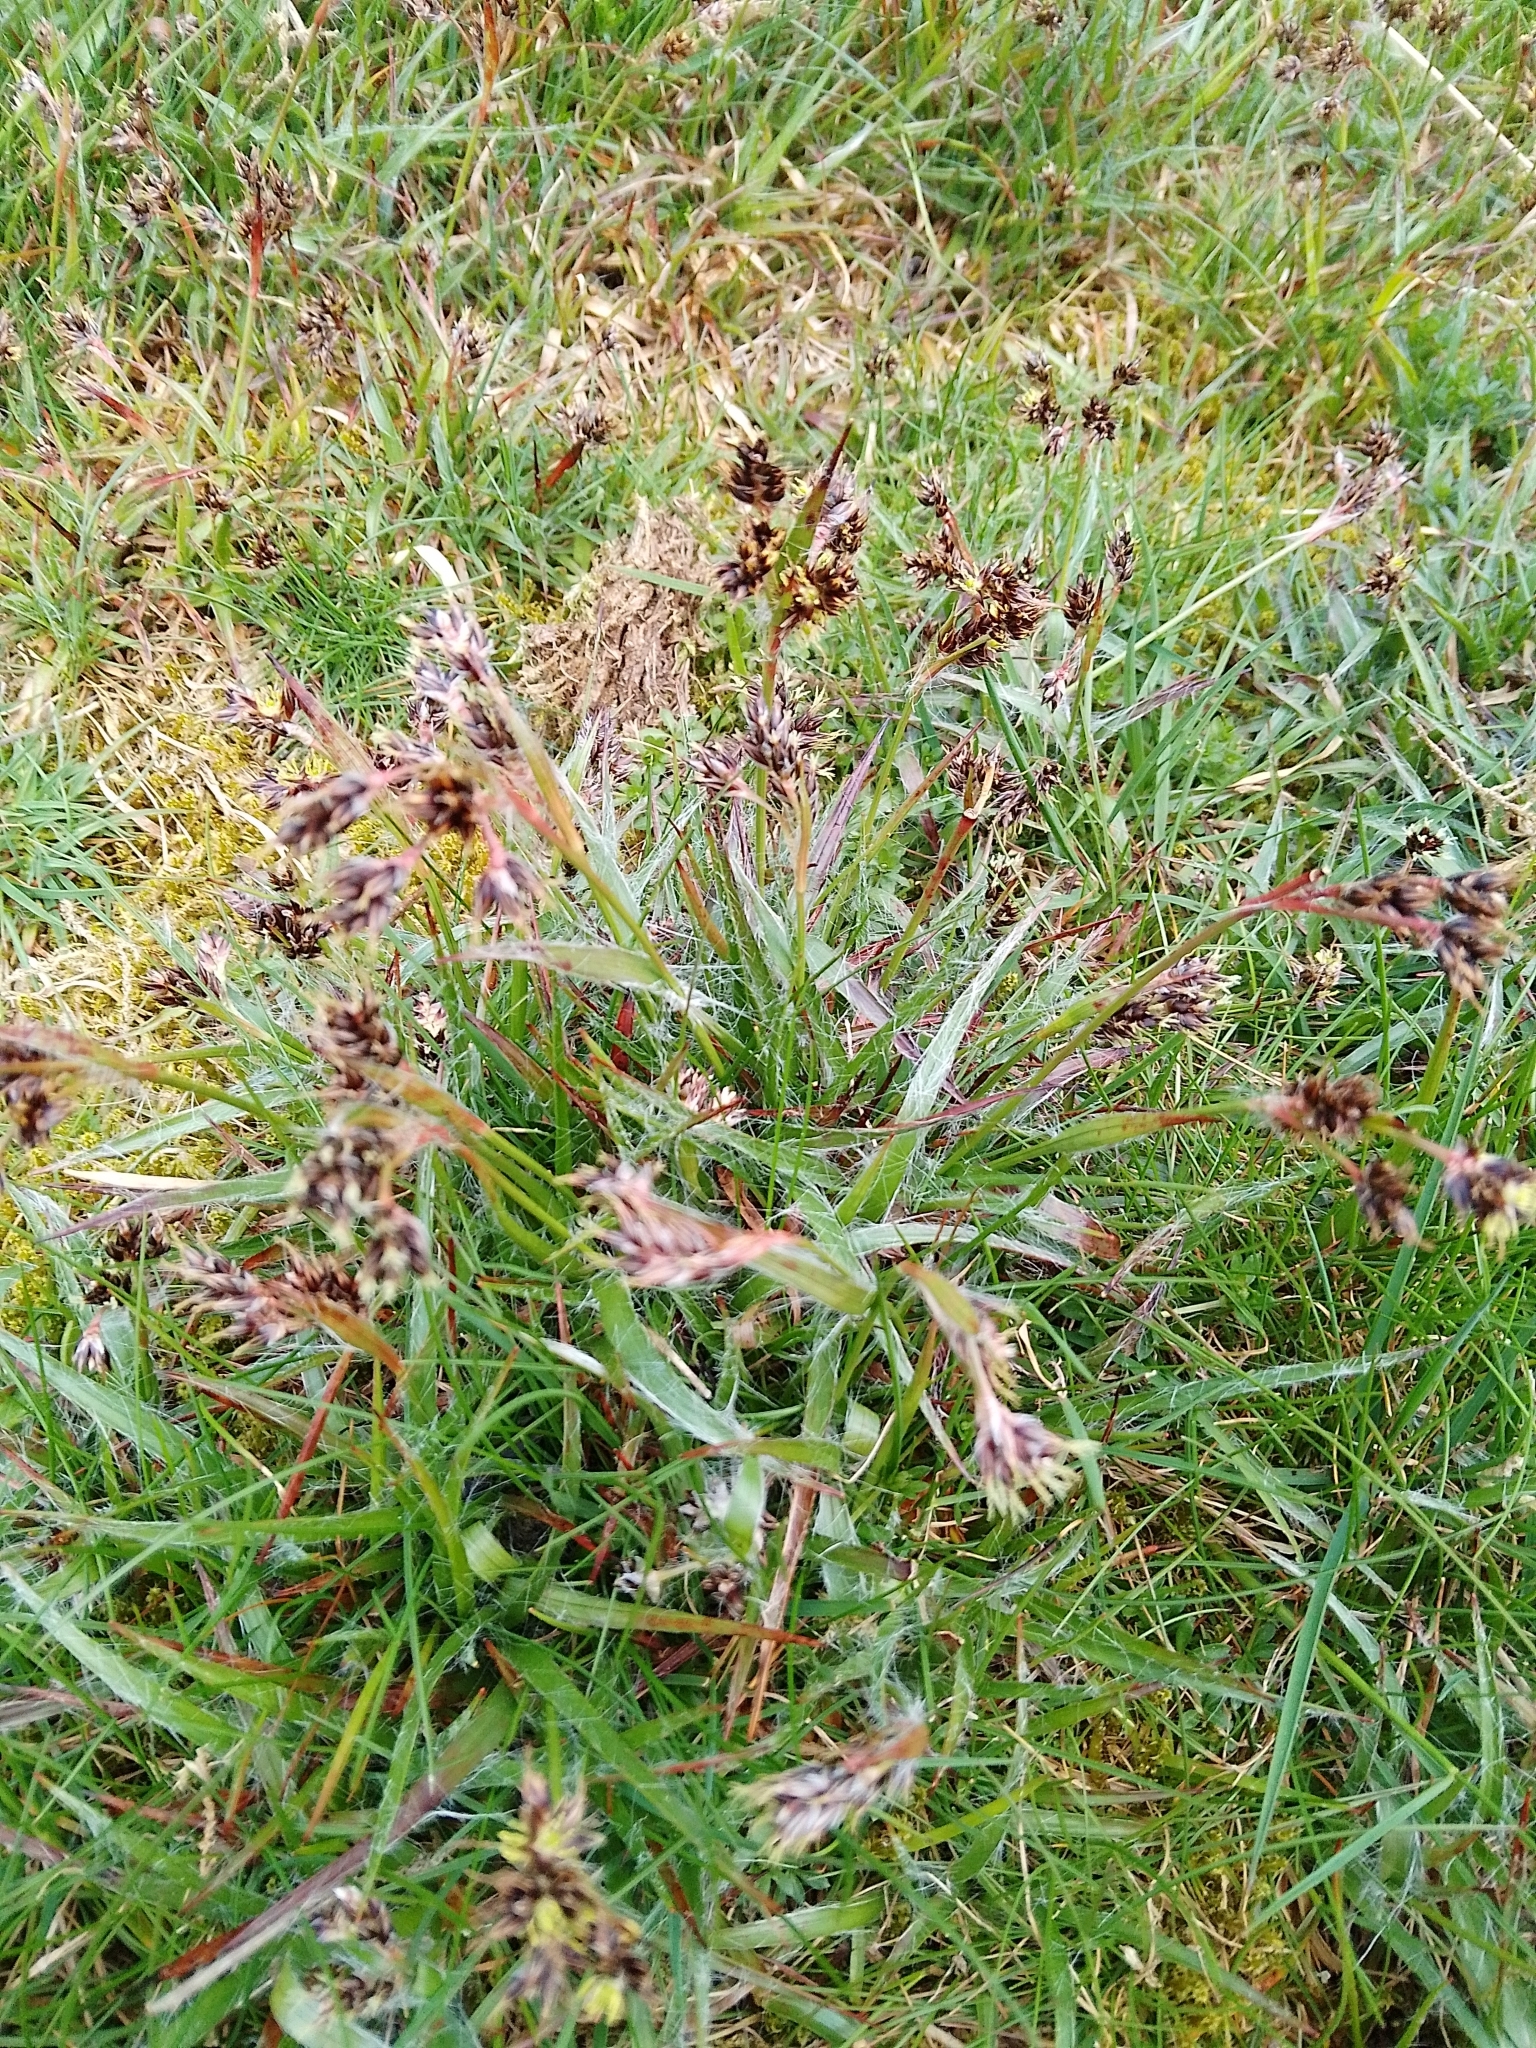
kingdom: Plantae
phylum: Tracheophyta
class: Liliopsida
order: Poales
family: Juncaceae
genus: Luzula
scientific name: Luzula campestris
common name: Field wood-rush
